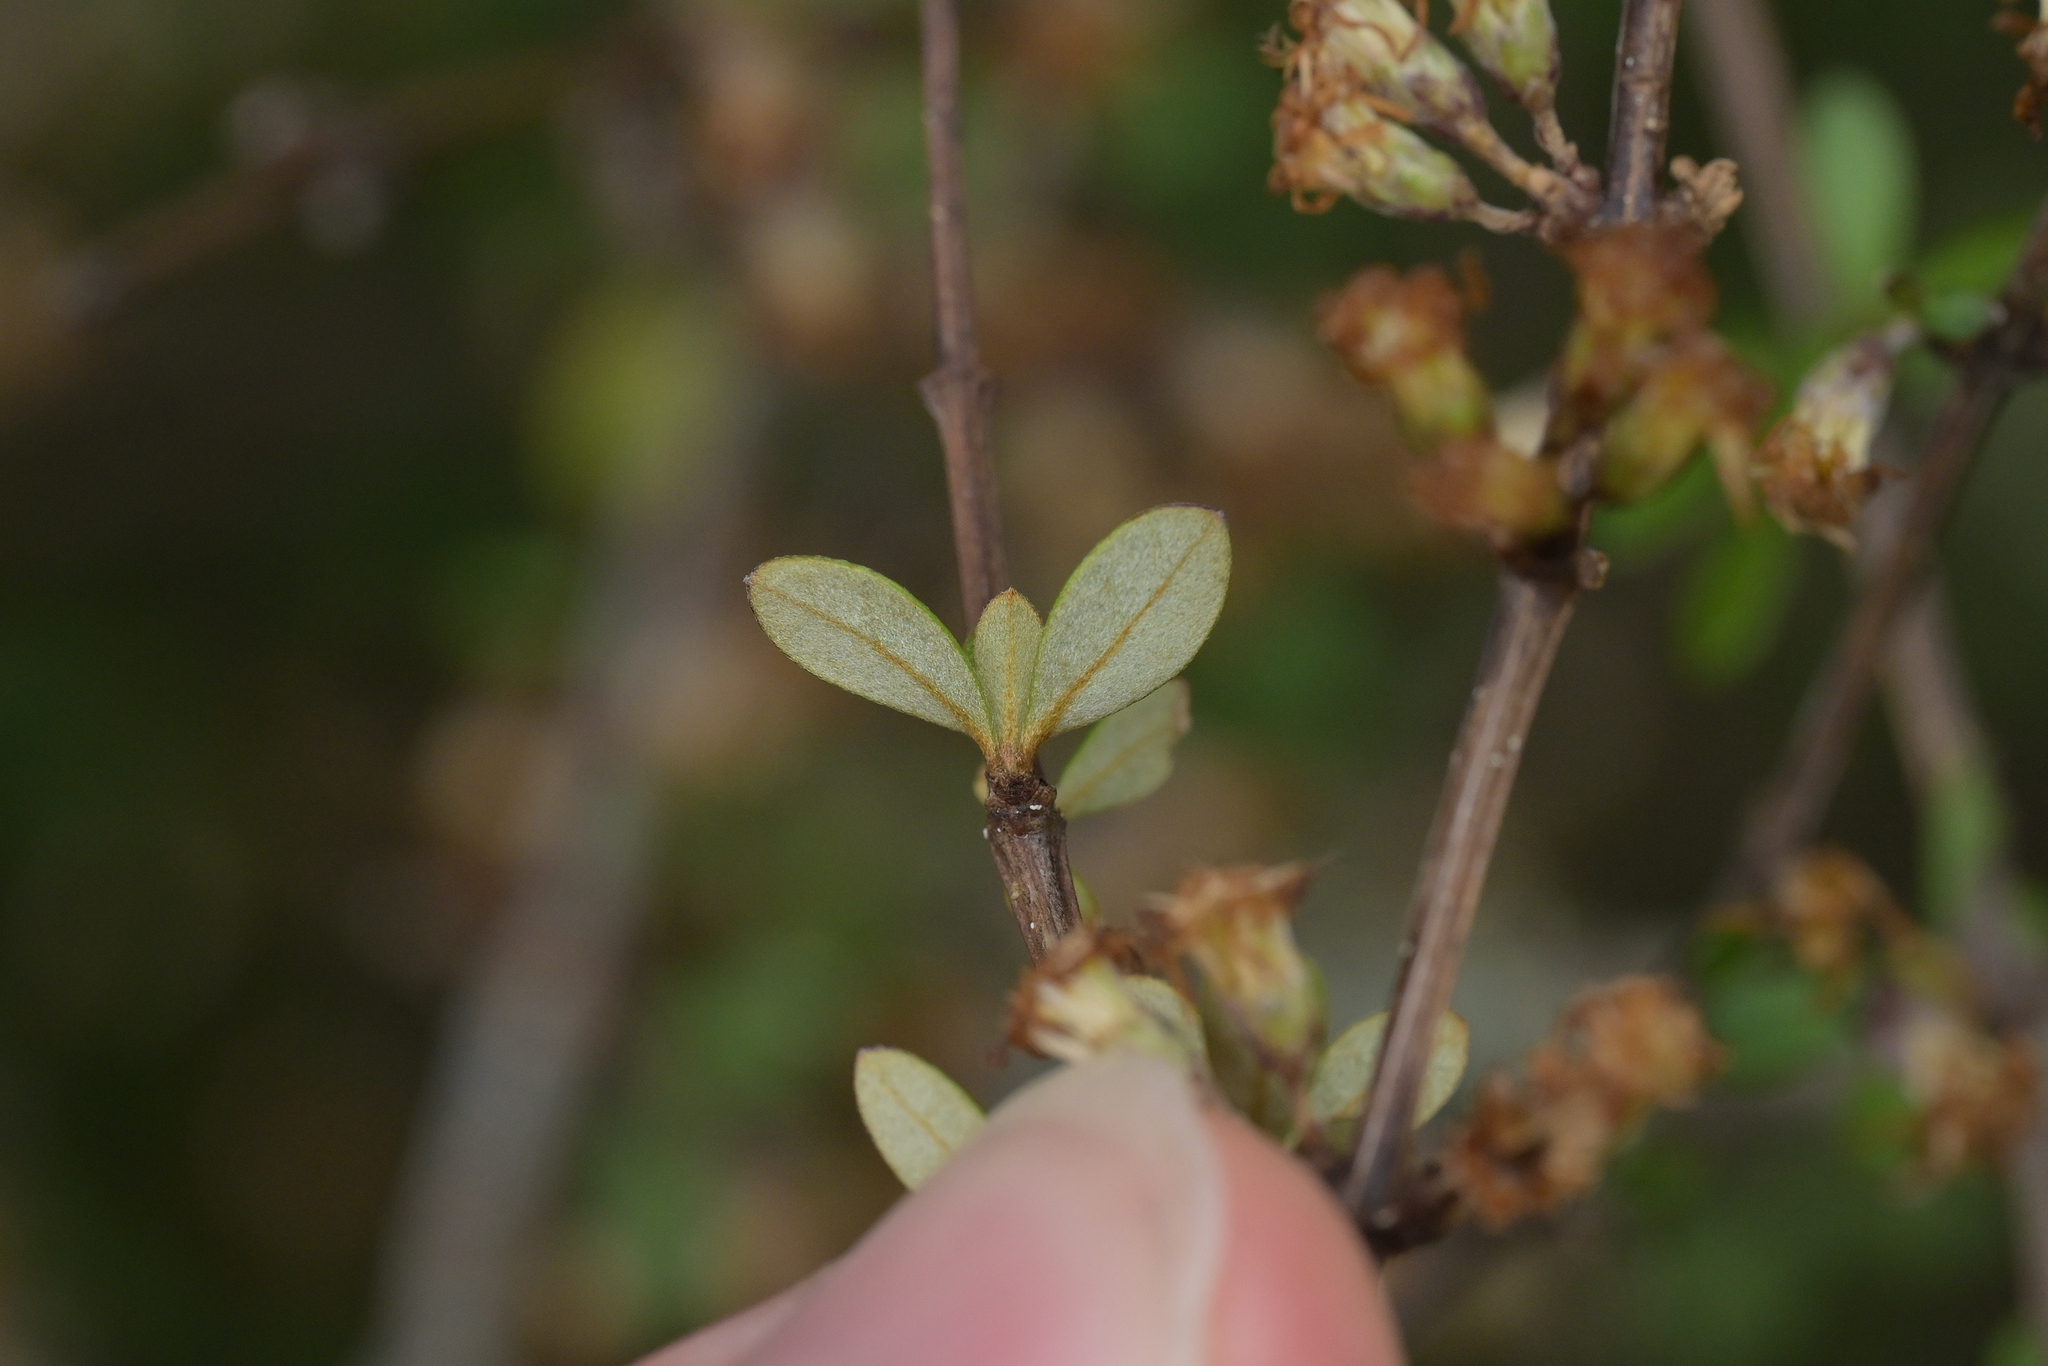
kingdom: Plantae
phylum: Tracheophyta
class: Magnoliopsida
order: Asterales
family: Asteraceae
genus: Olearia
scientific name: Olearia virgata
